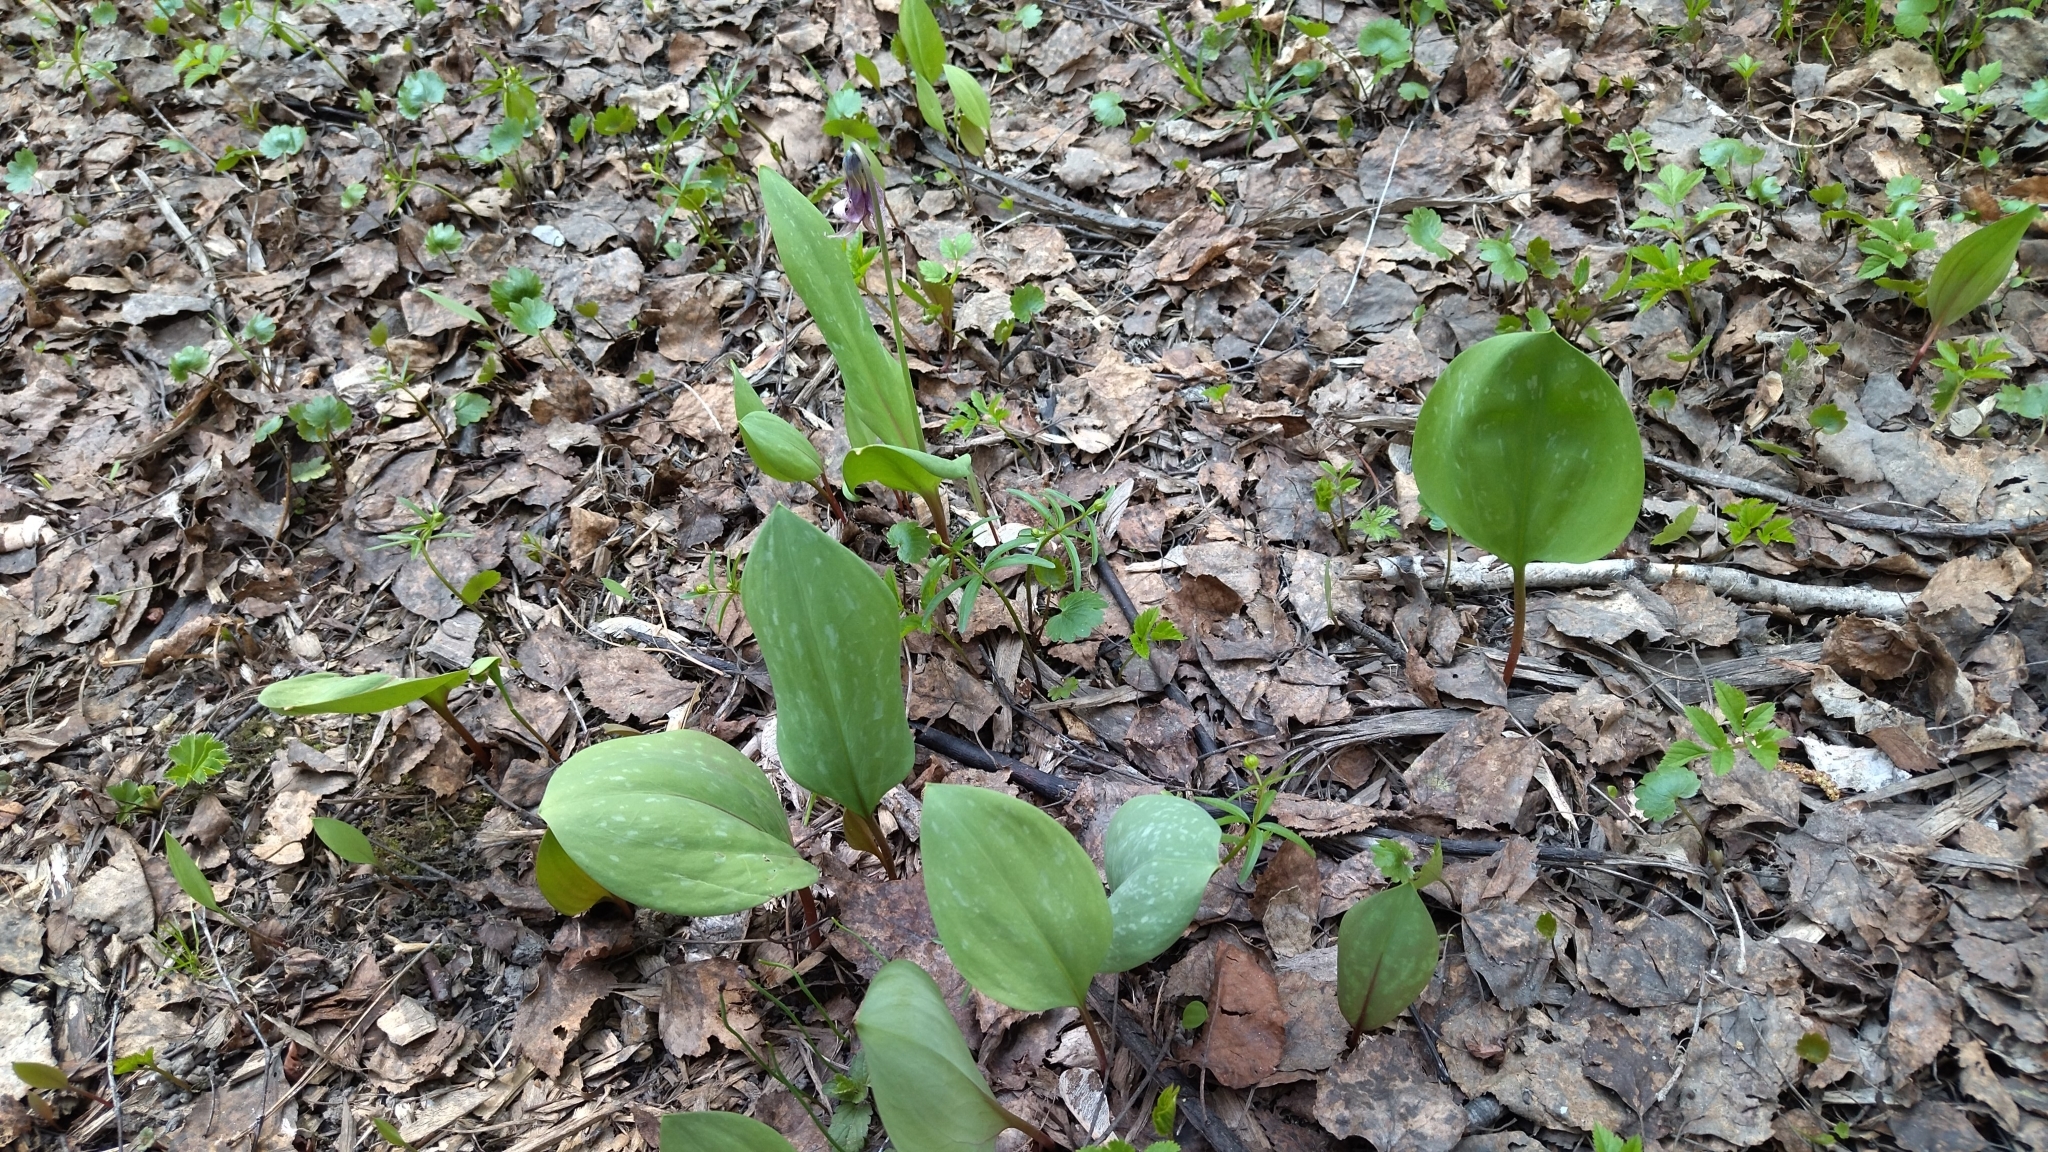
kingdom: Plantae
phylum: Tracheophyta
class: Liliopsida
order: Liliales
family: Liliaceae
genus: Erythronium
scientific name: Erythronium sibiricum
